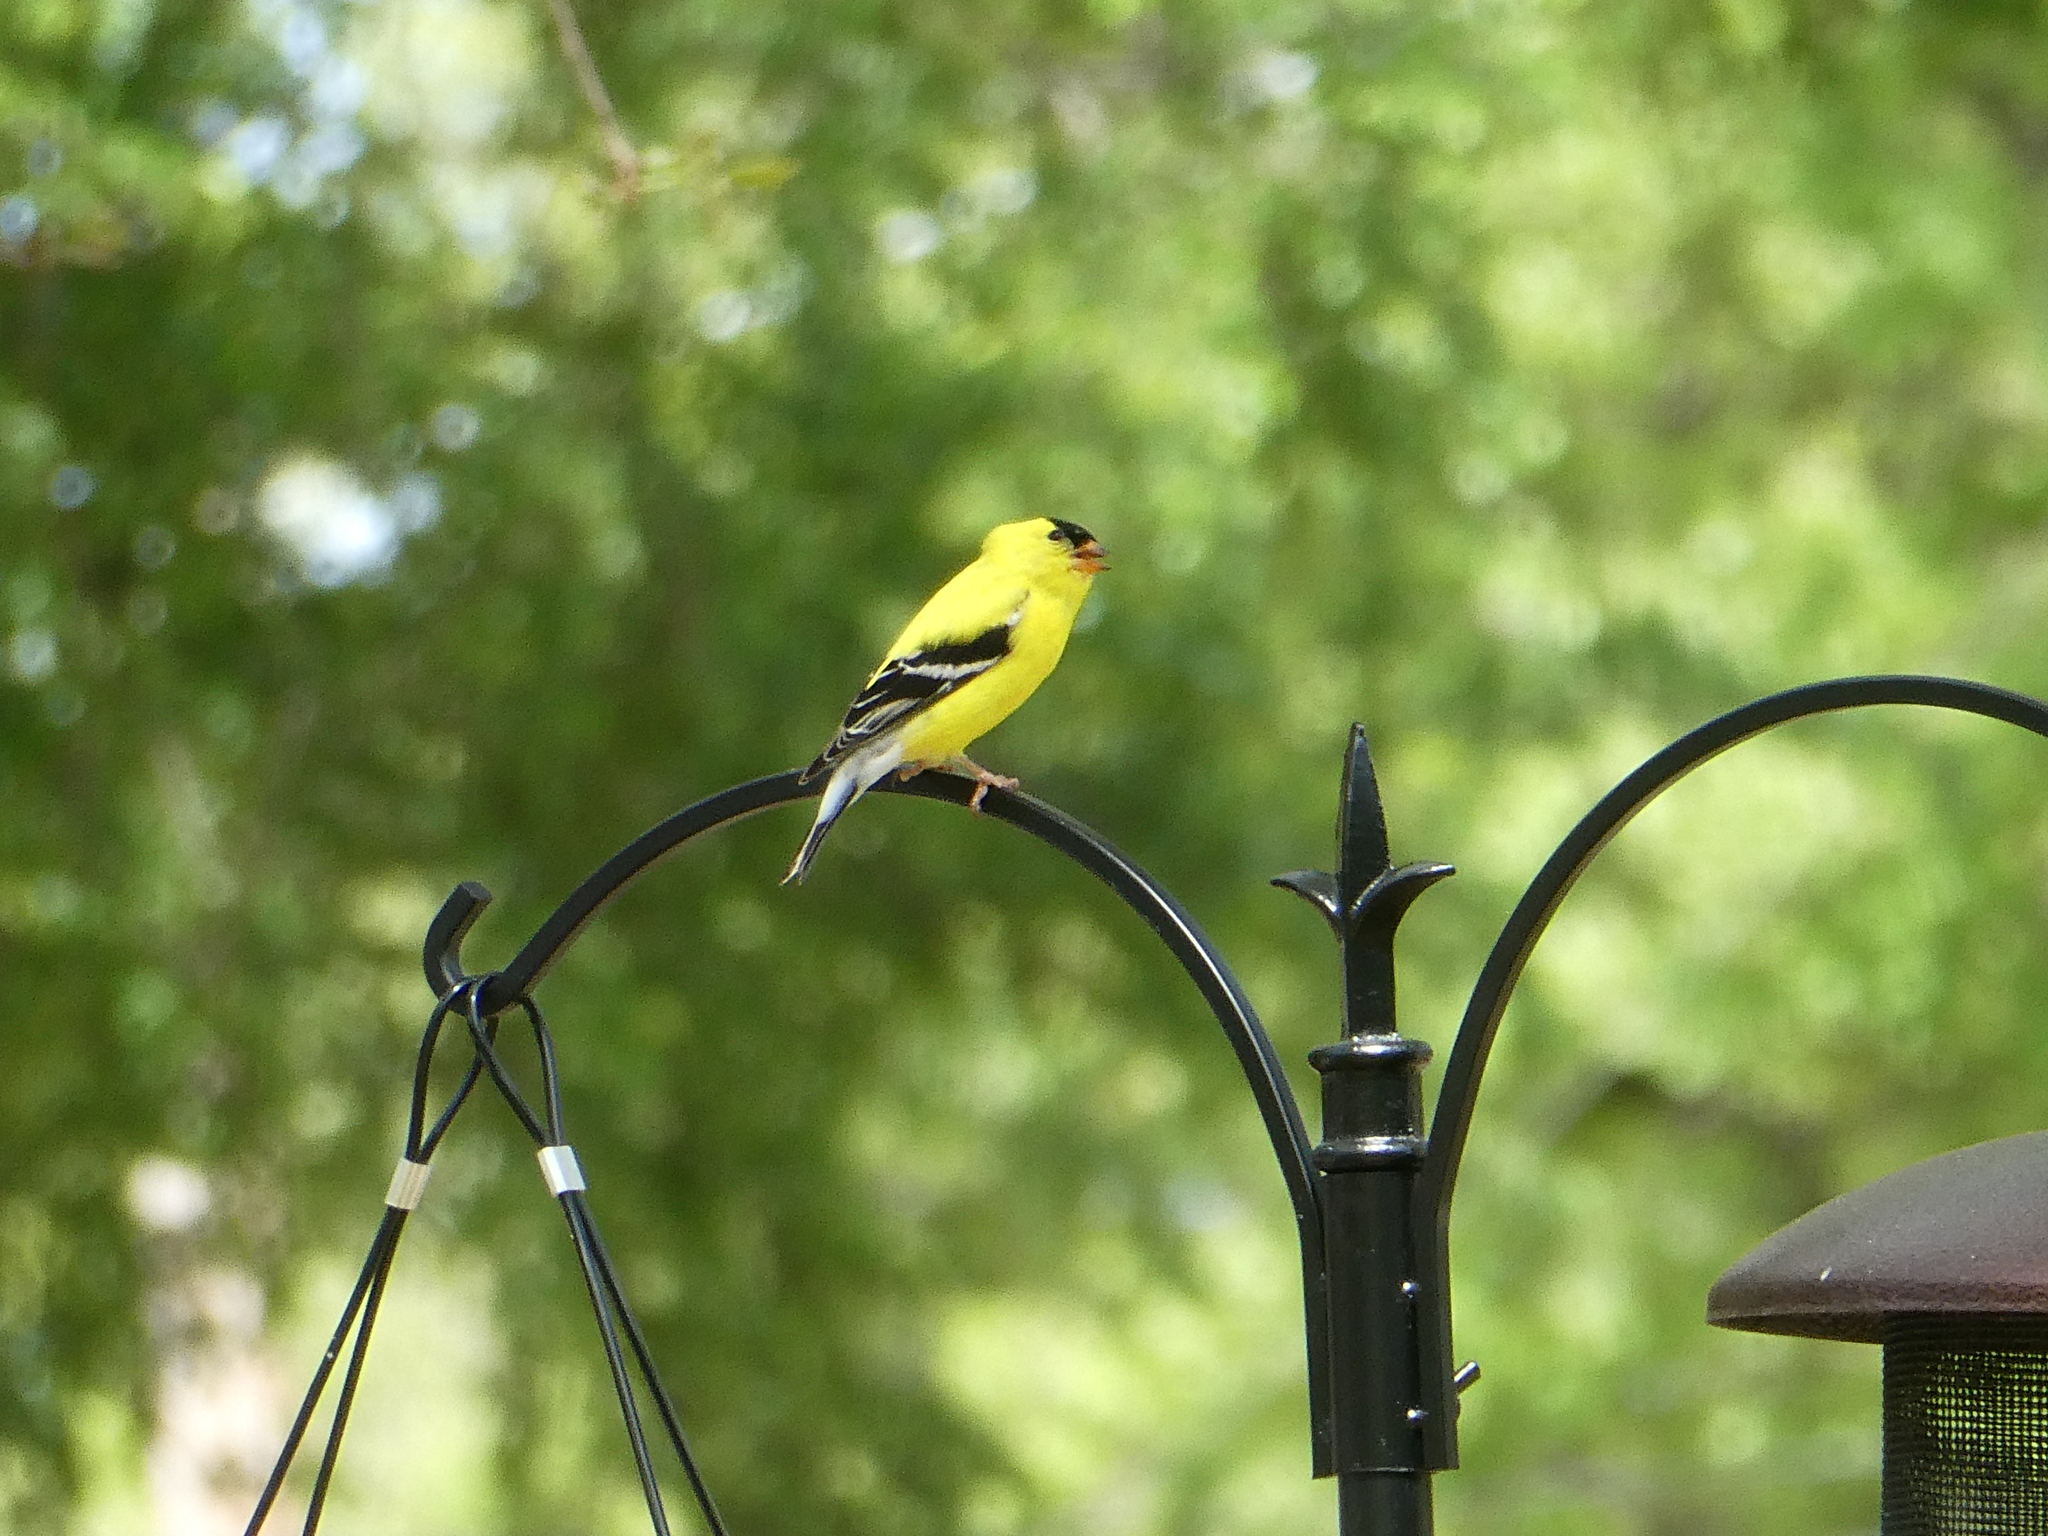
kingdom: Animalia
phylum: Chordata
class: Aves
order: Passeriformes
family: Fringillidae
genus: Spinus
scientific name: Spinus tristis
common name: American goldfinch
